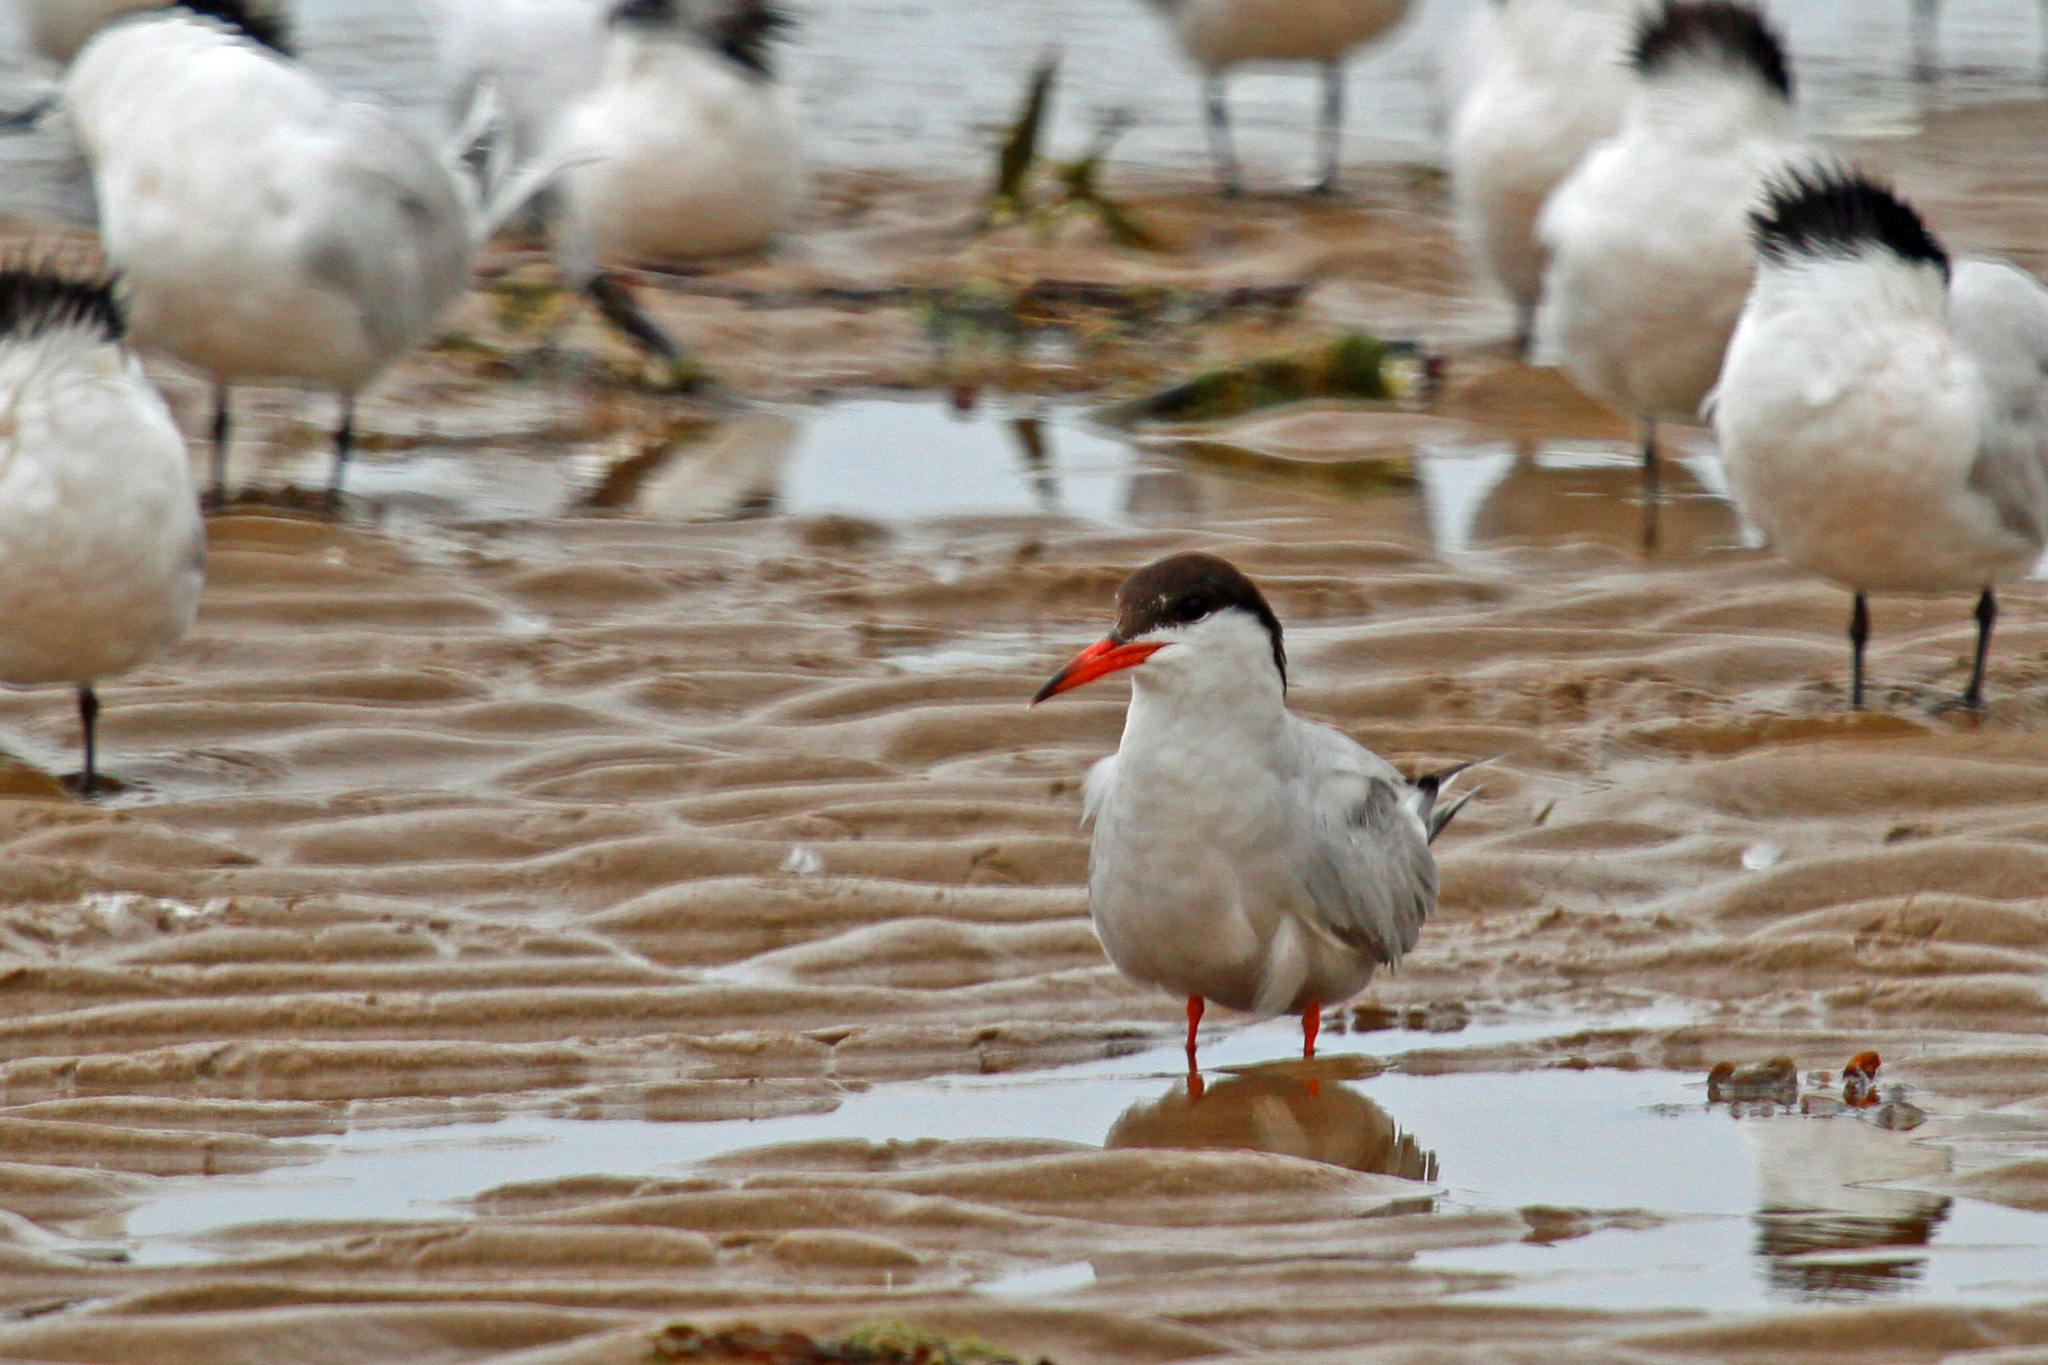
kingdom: Animalia
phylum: Chordata
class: Aves
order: Charadriiformes
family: Laridae
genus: Sterna
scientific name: Sterna hirundo
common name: Common tern
